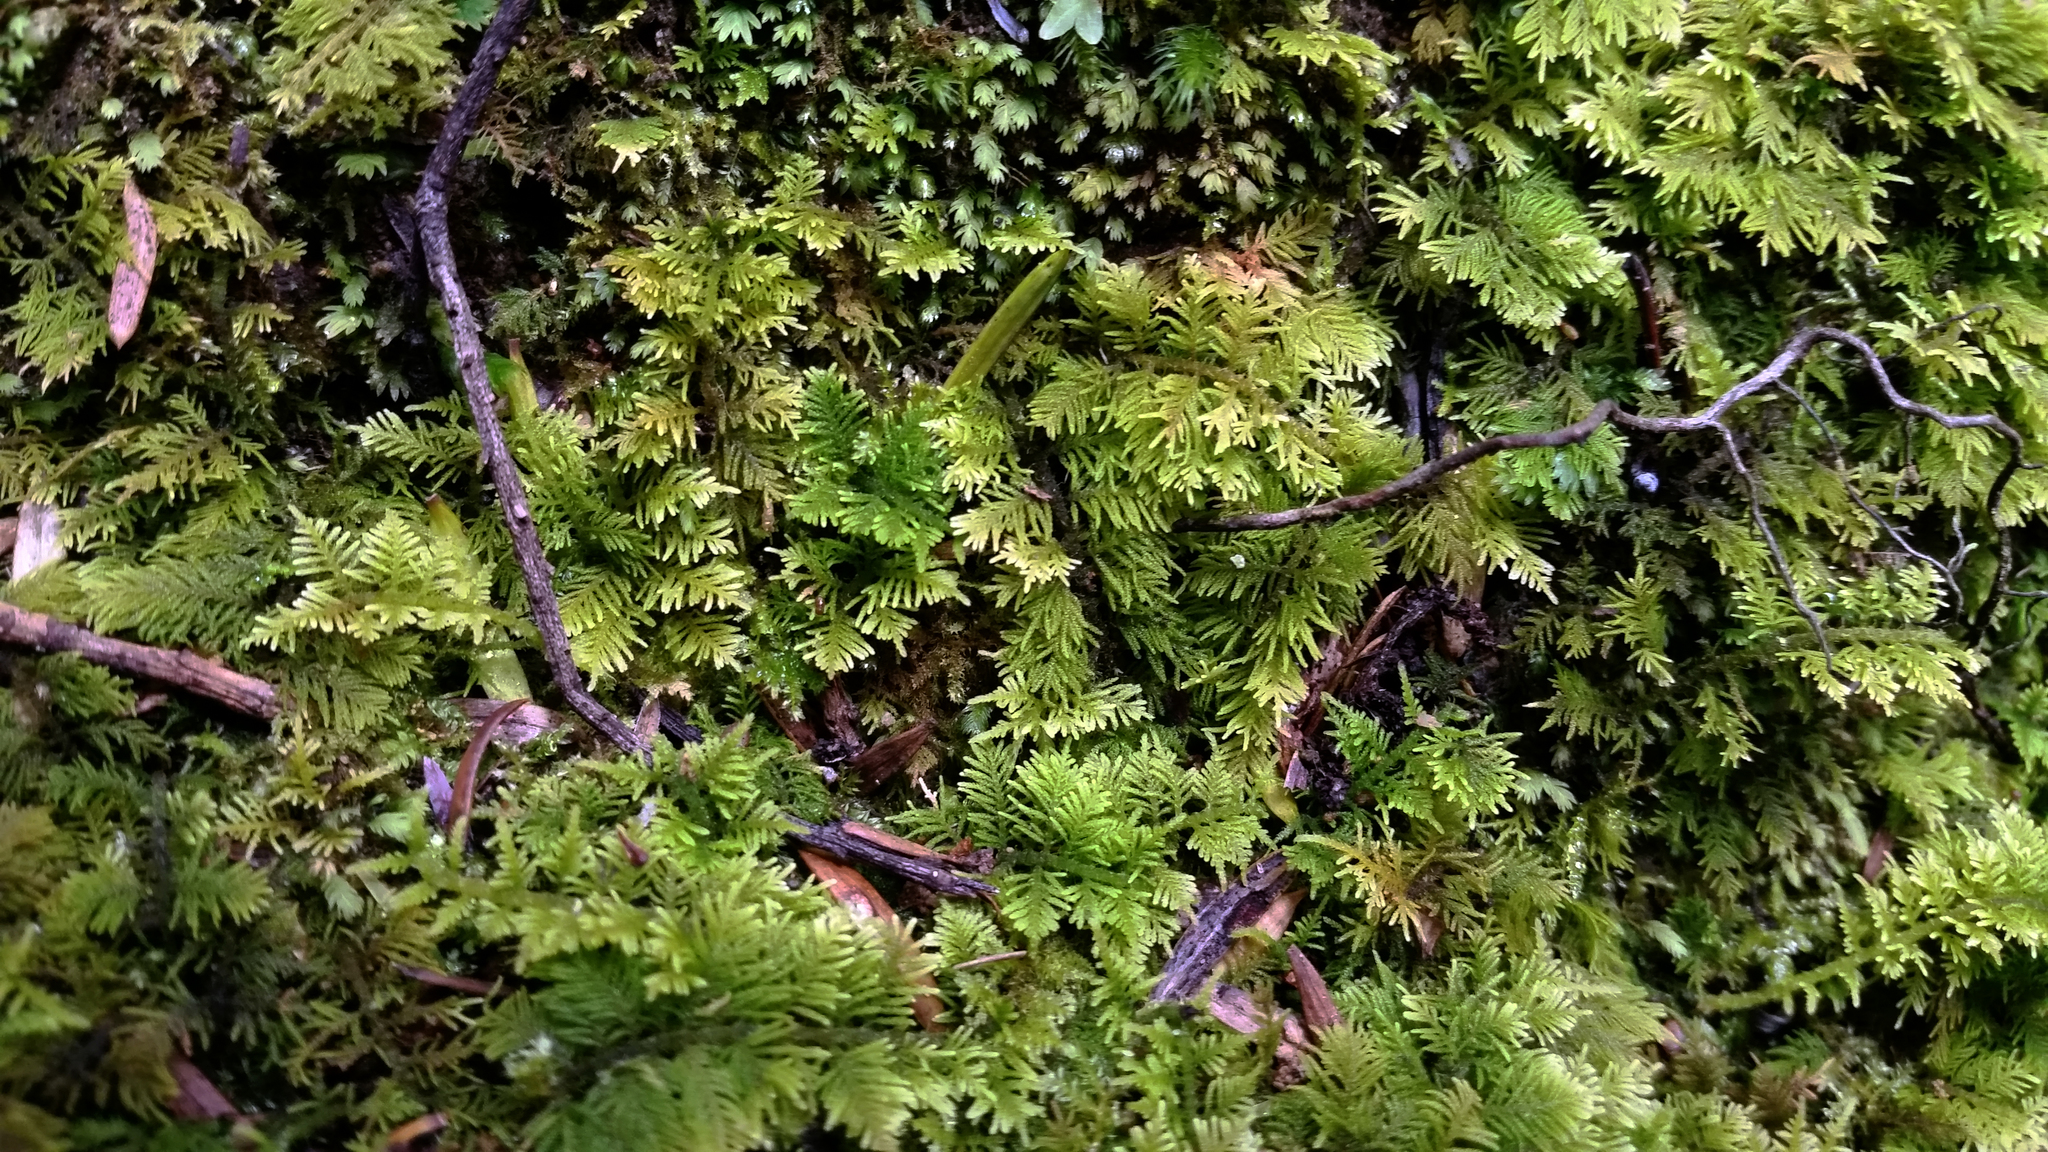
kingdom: Plantae
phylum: Bryophyta
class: Bryopsida
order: Hypnales
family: Thuidiaceae
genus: Thuidium
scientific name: Thuidium laeviusculum
